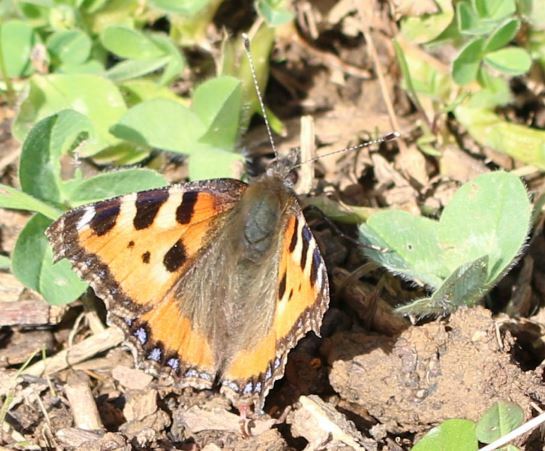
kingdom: Animalia
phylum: Arthropoda
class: Insecta
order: Lepidoptera
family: Nymphalidae
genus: Aglais
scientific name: Aglais urticae
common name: Small tortoiseshell
